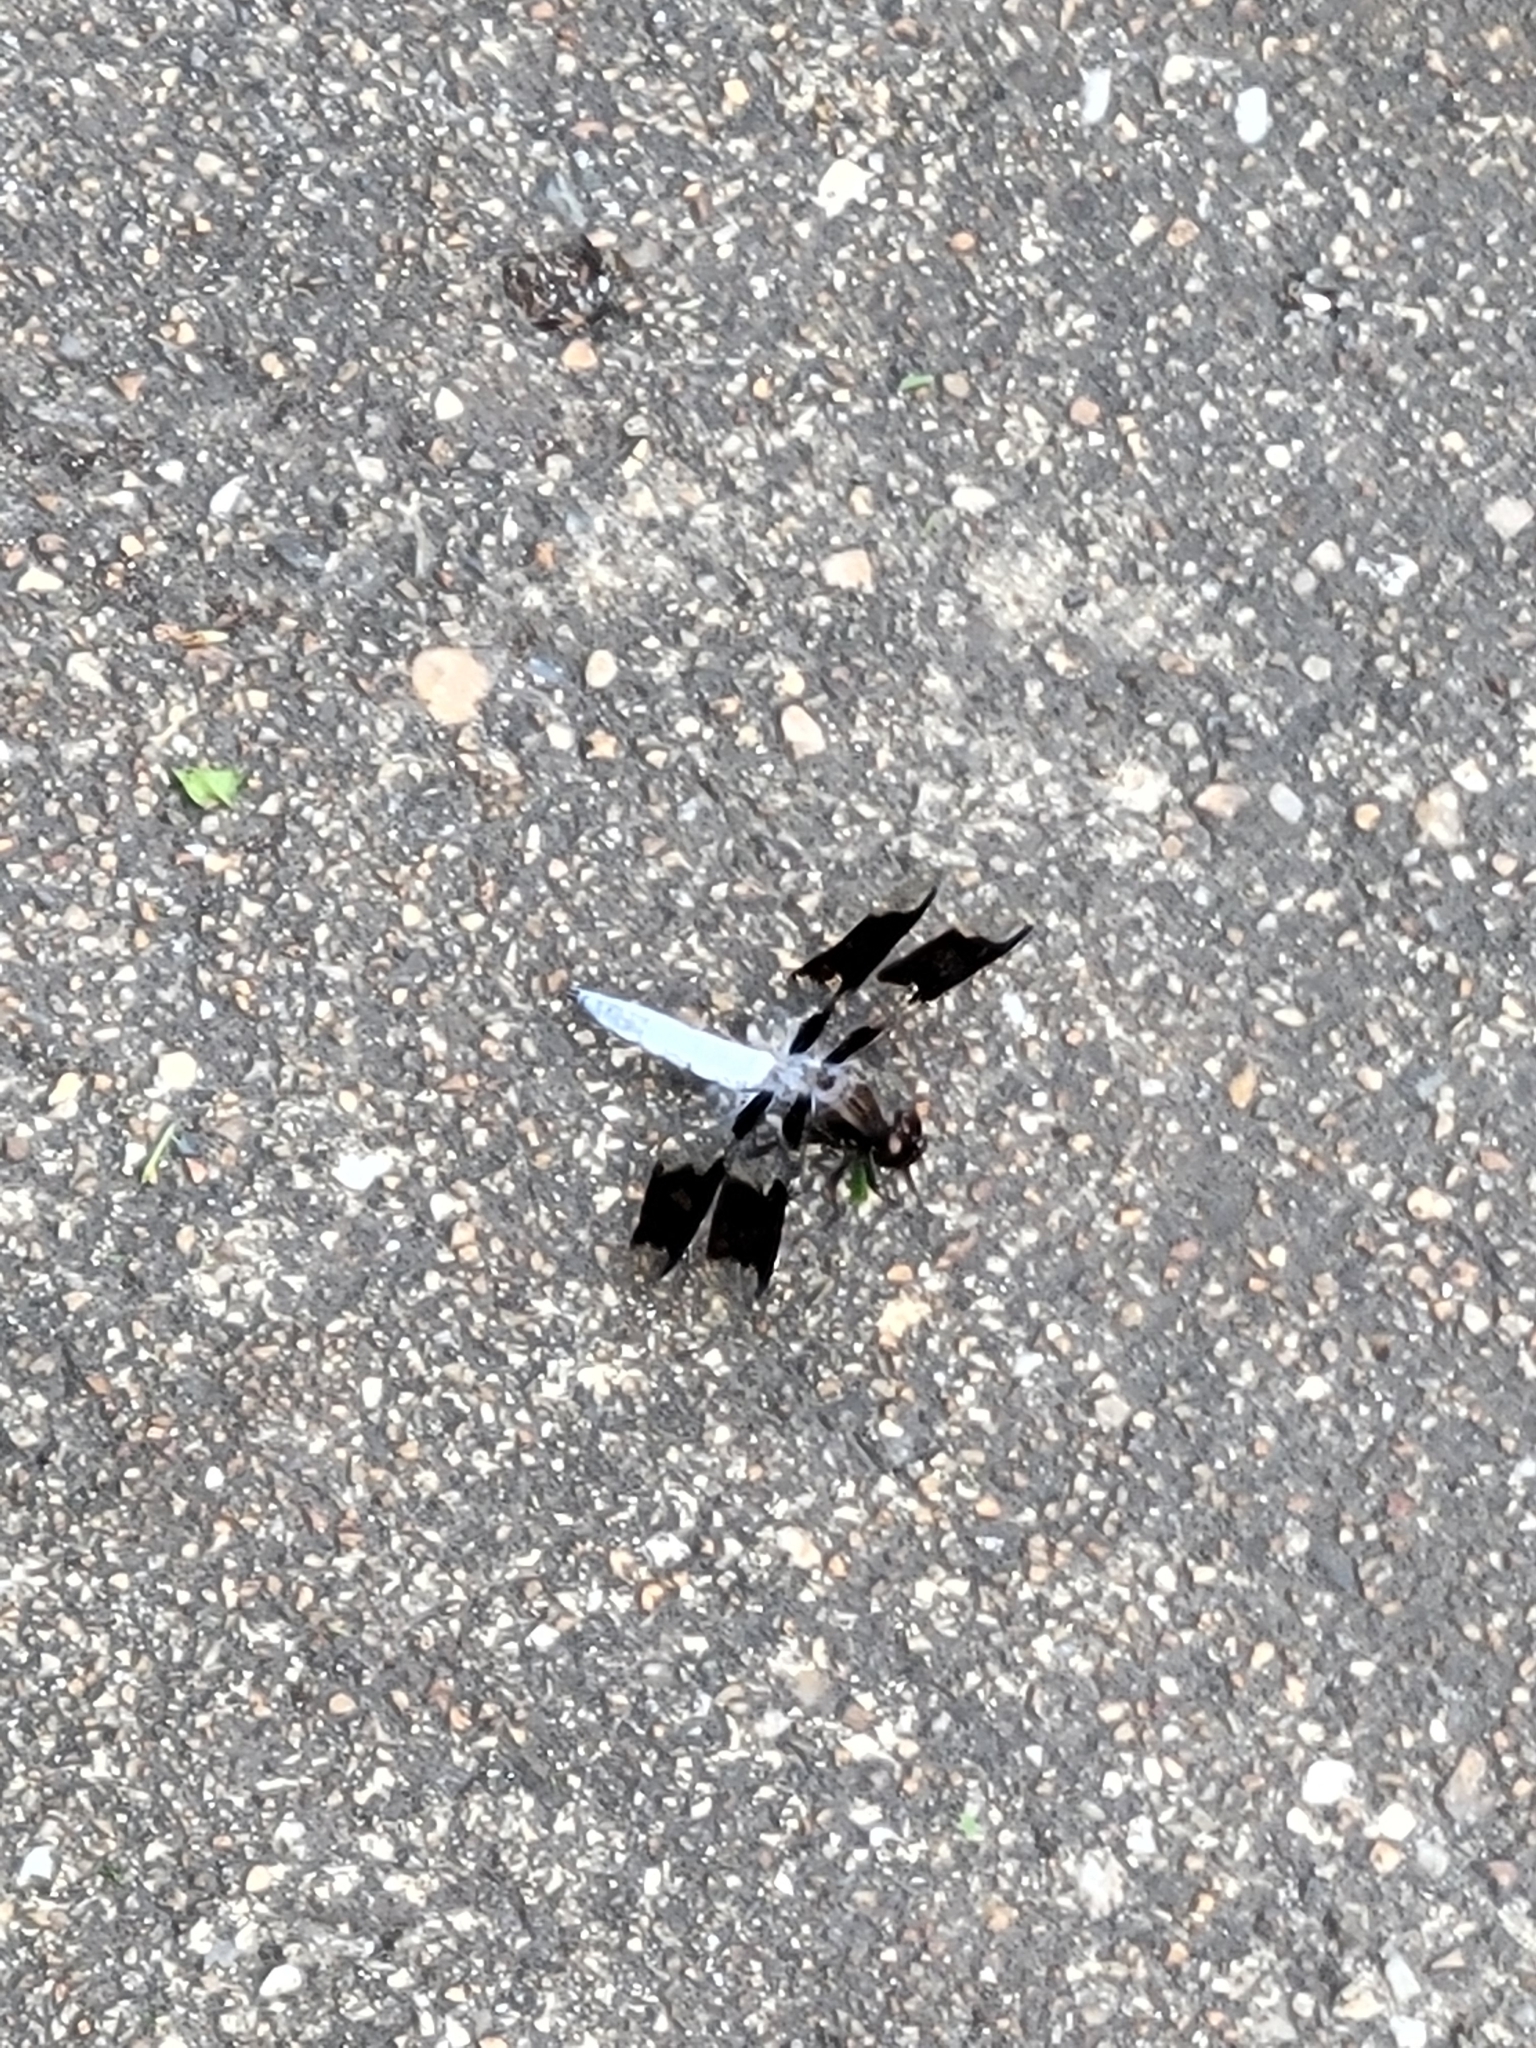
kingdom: Animalia
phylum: Arthropoda
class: Insecta
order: Odonata
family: Libellulidae
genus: Plathemis
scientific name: Plathemis lydia
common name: Common whitetail
